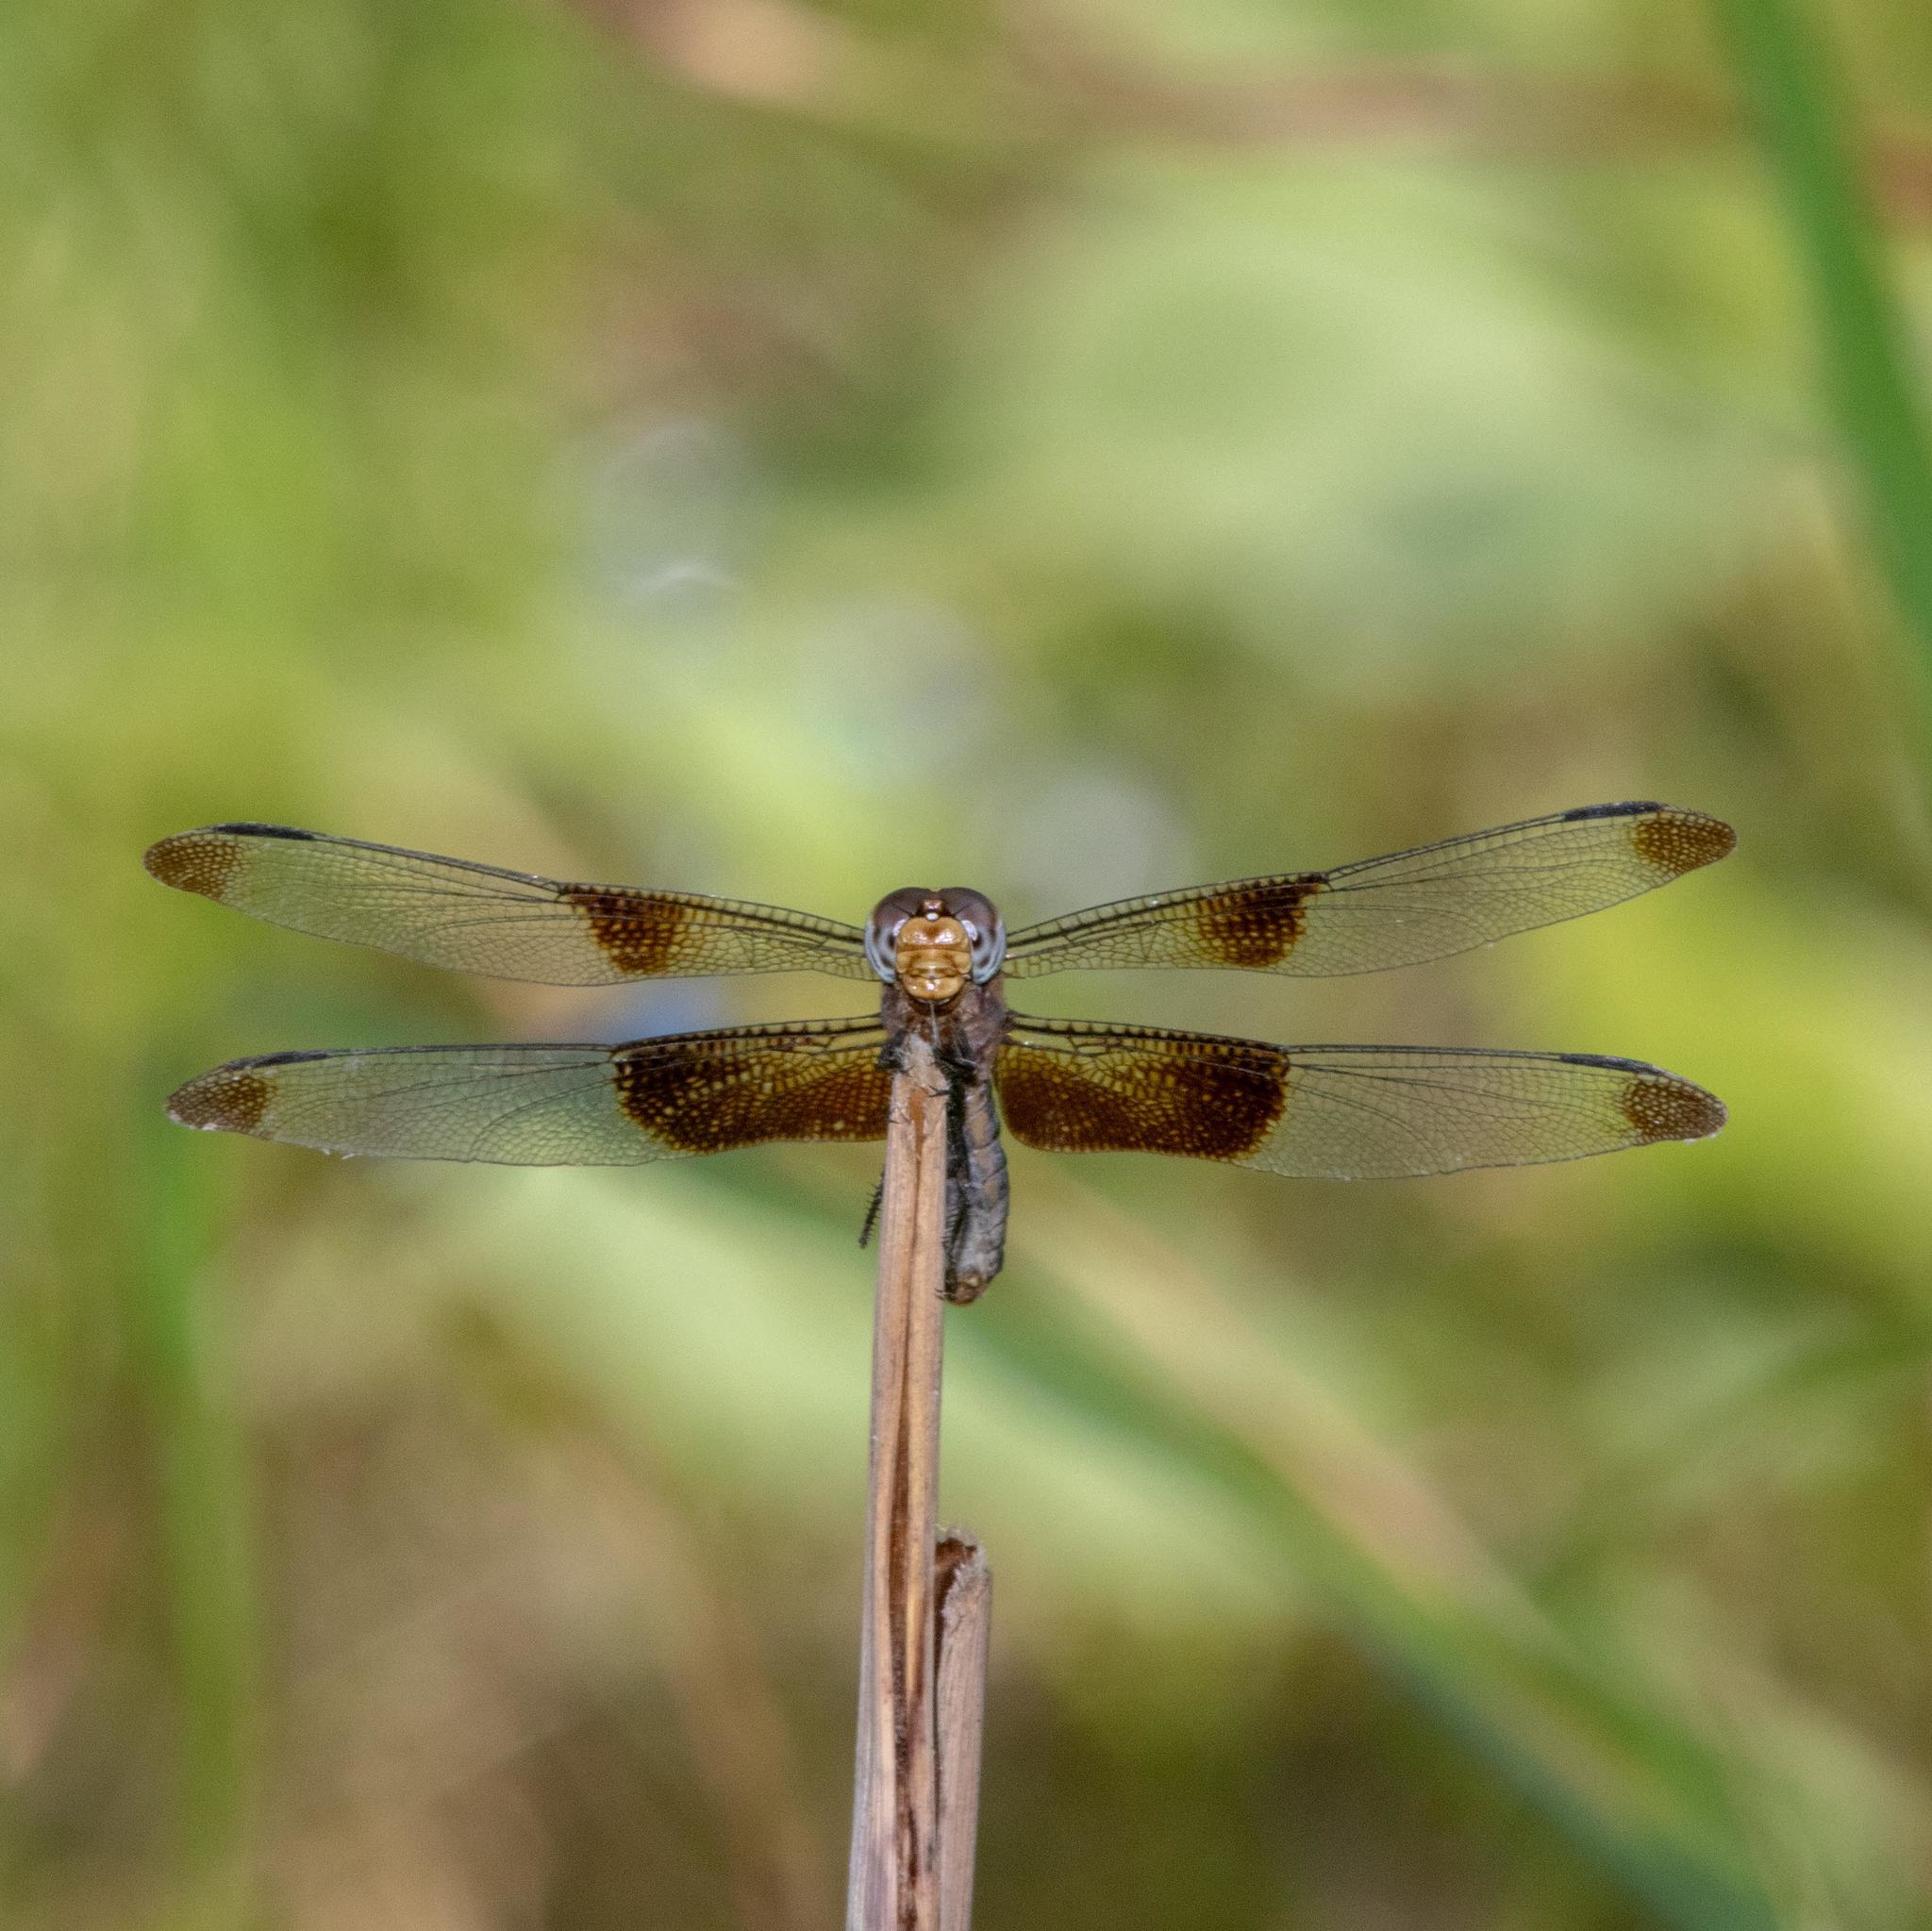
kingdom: Animalia
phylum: Arthropoda
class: Insecta
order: Odonata
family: Libellulidae
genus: Libellula
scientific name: Libellula luctuosa
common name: Widow skimmer
